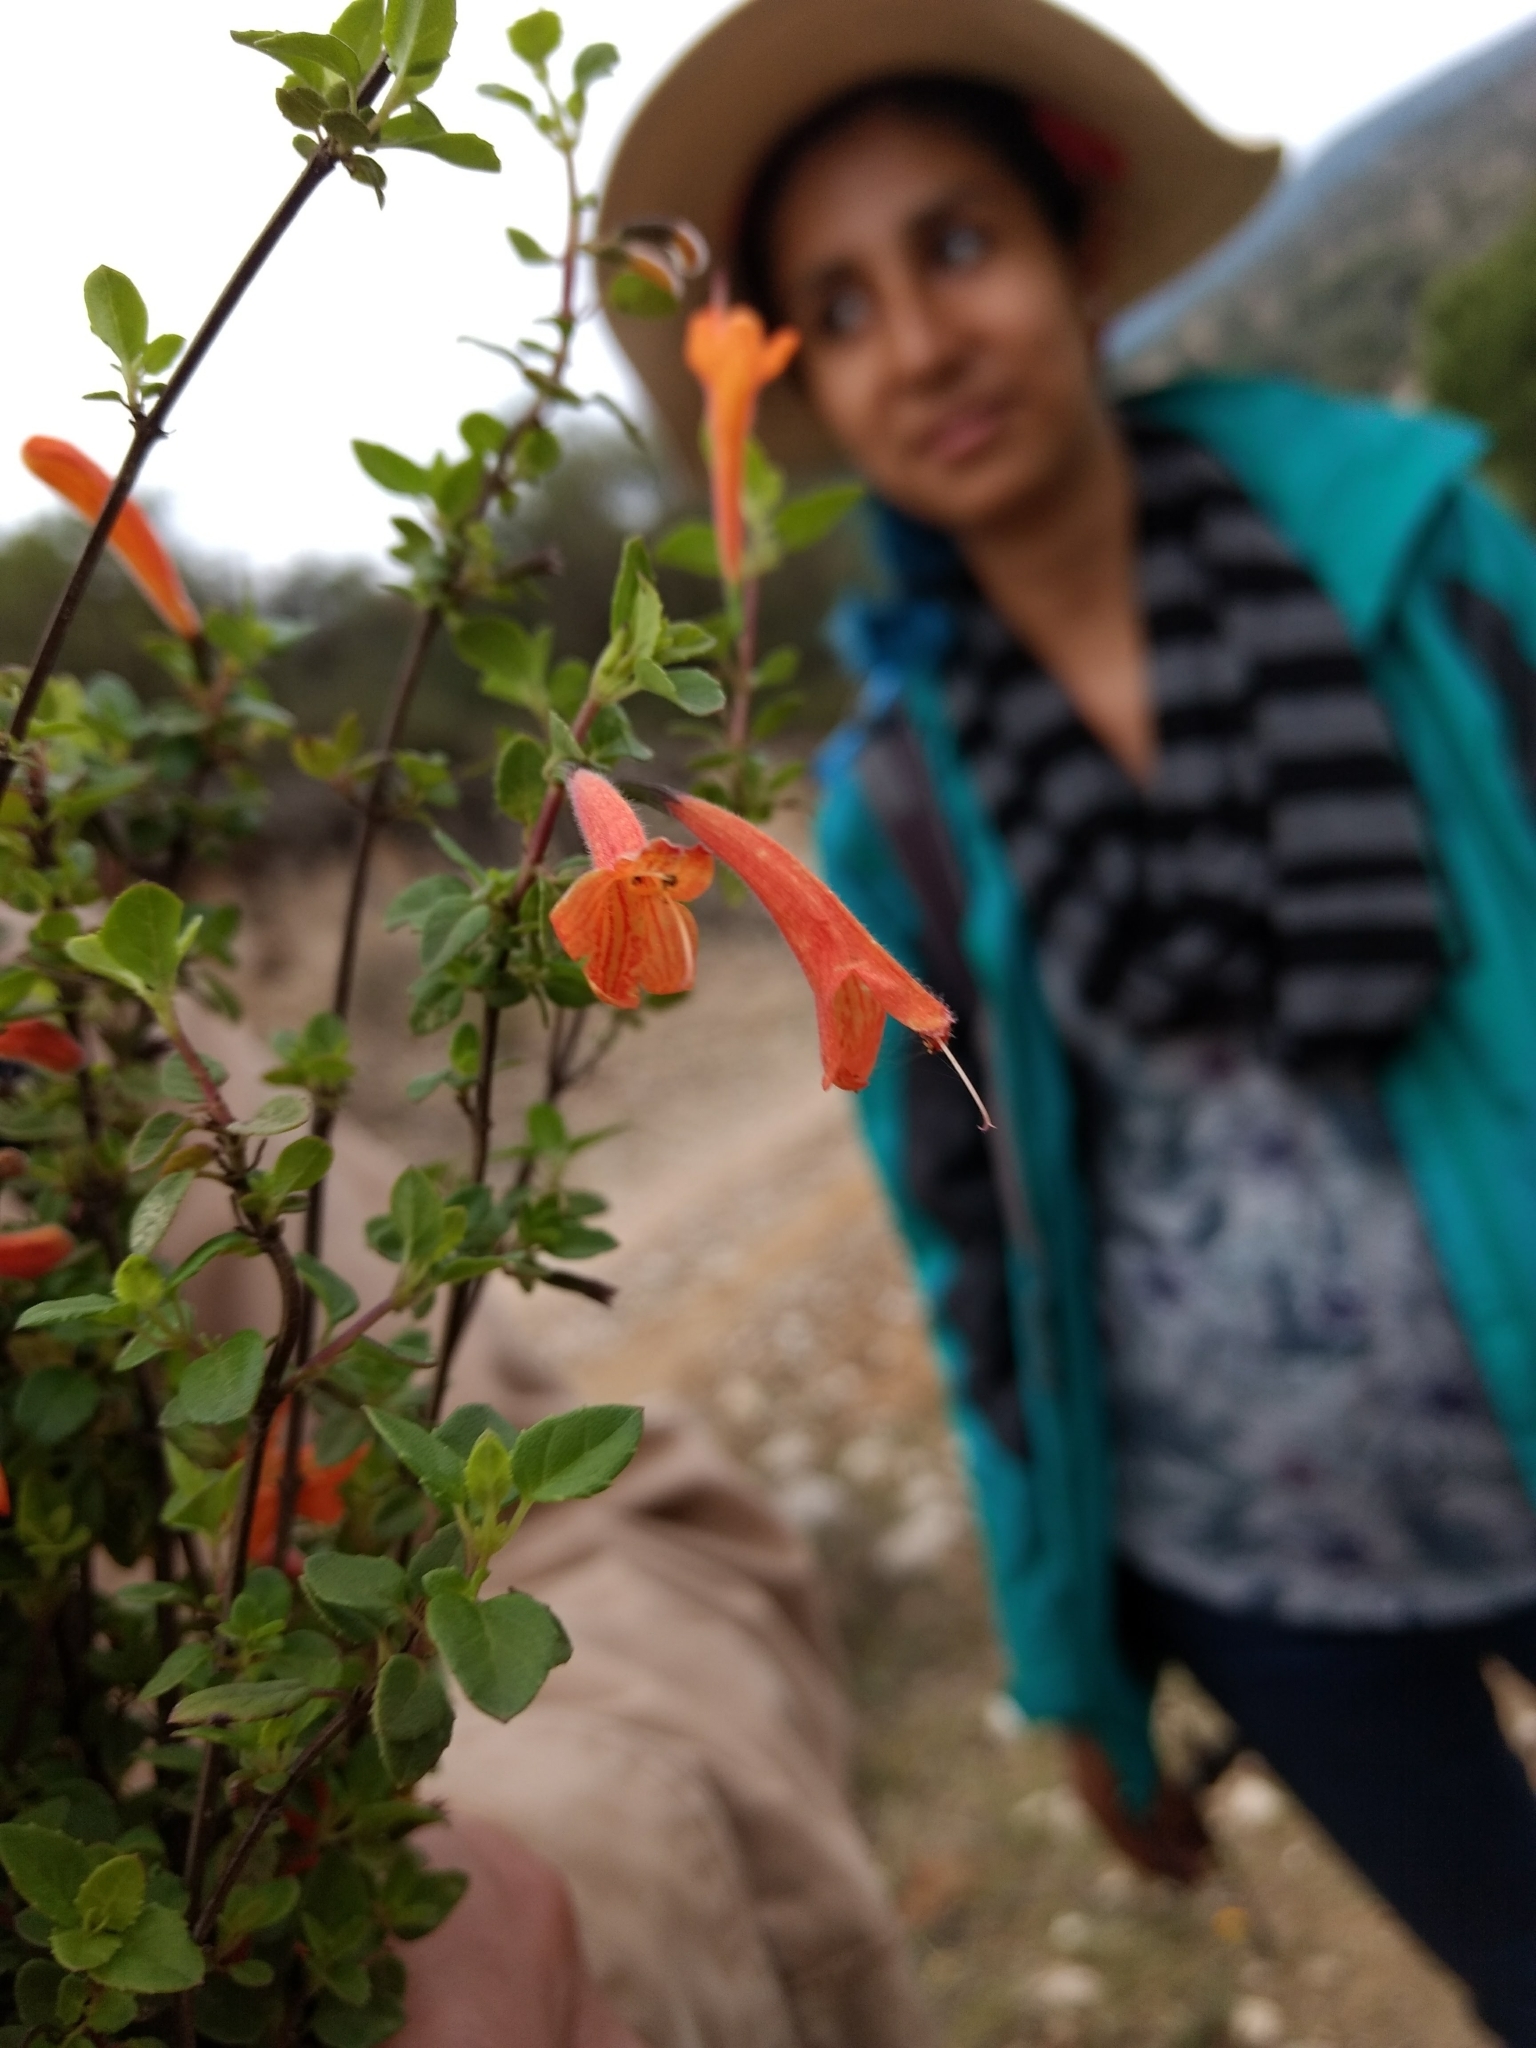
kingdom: Plantae
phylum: Tracheophyta
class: Magnoliopsida
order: Lamiales
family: Lamiaceae
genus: Clinopodium
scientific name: Clinopodium mexicanum
